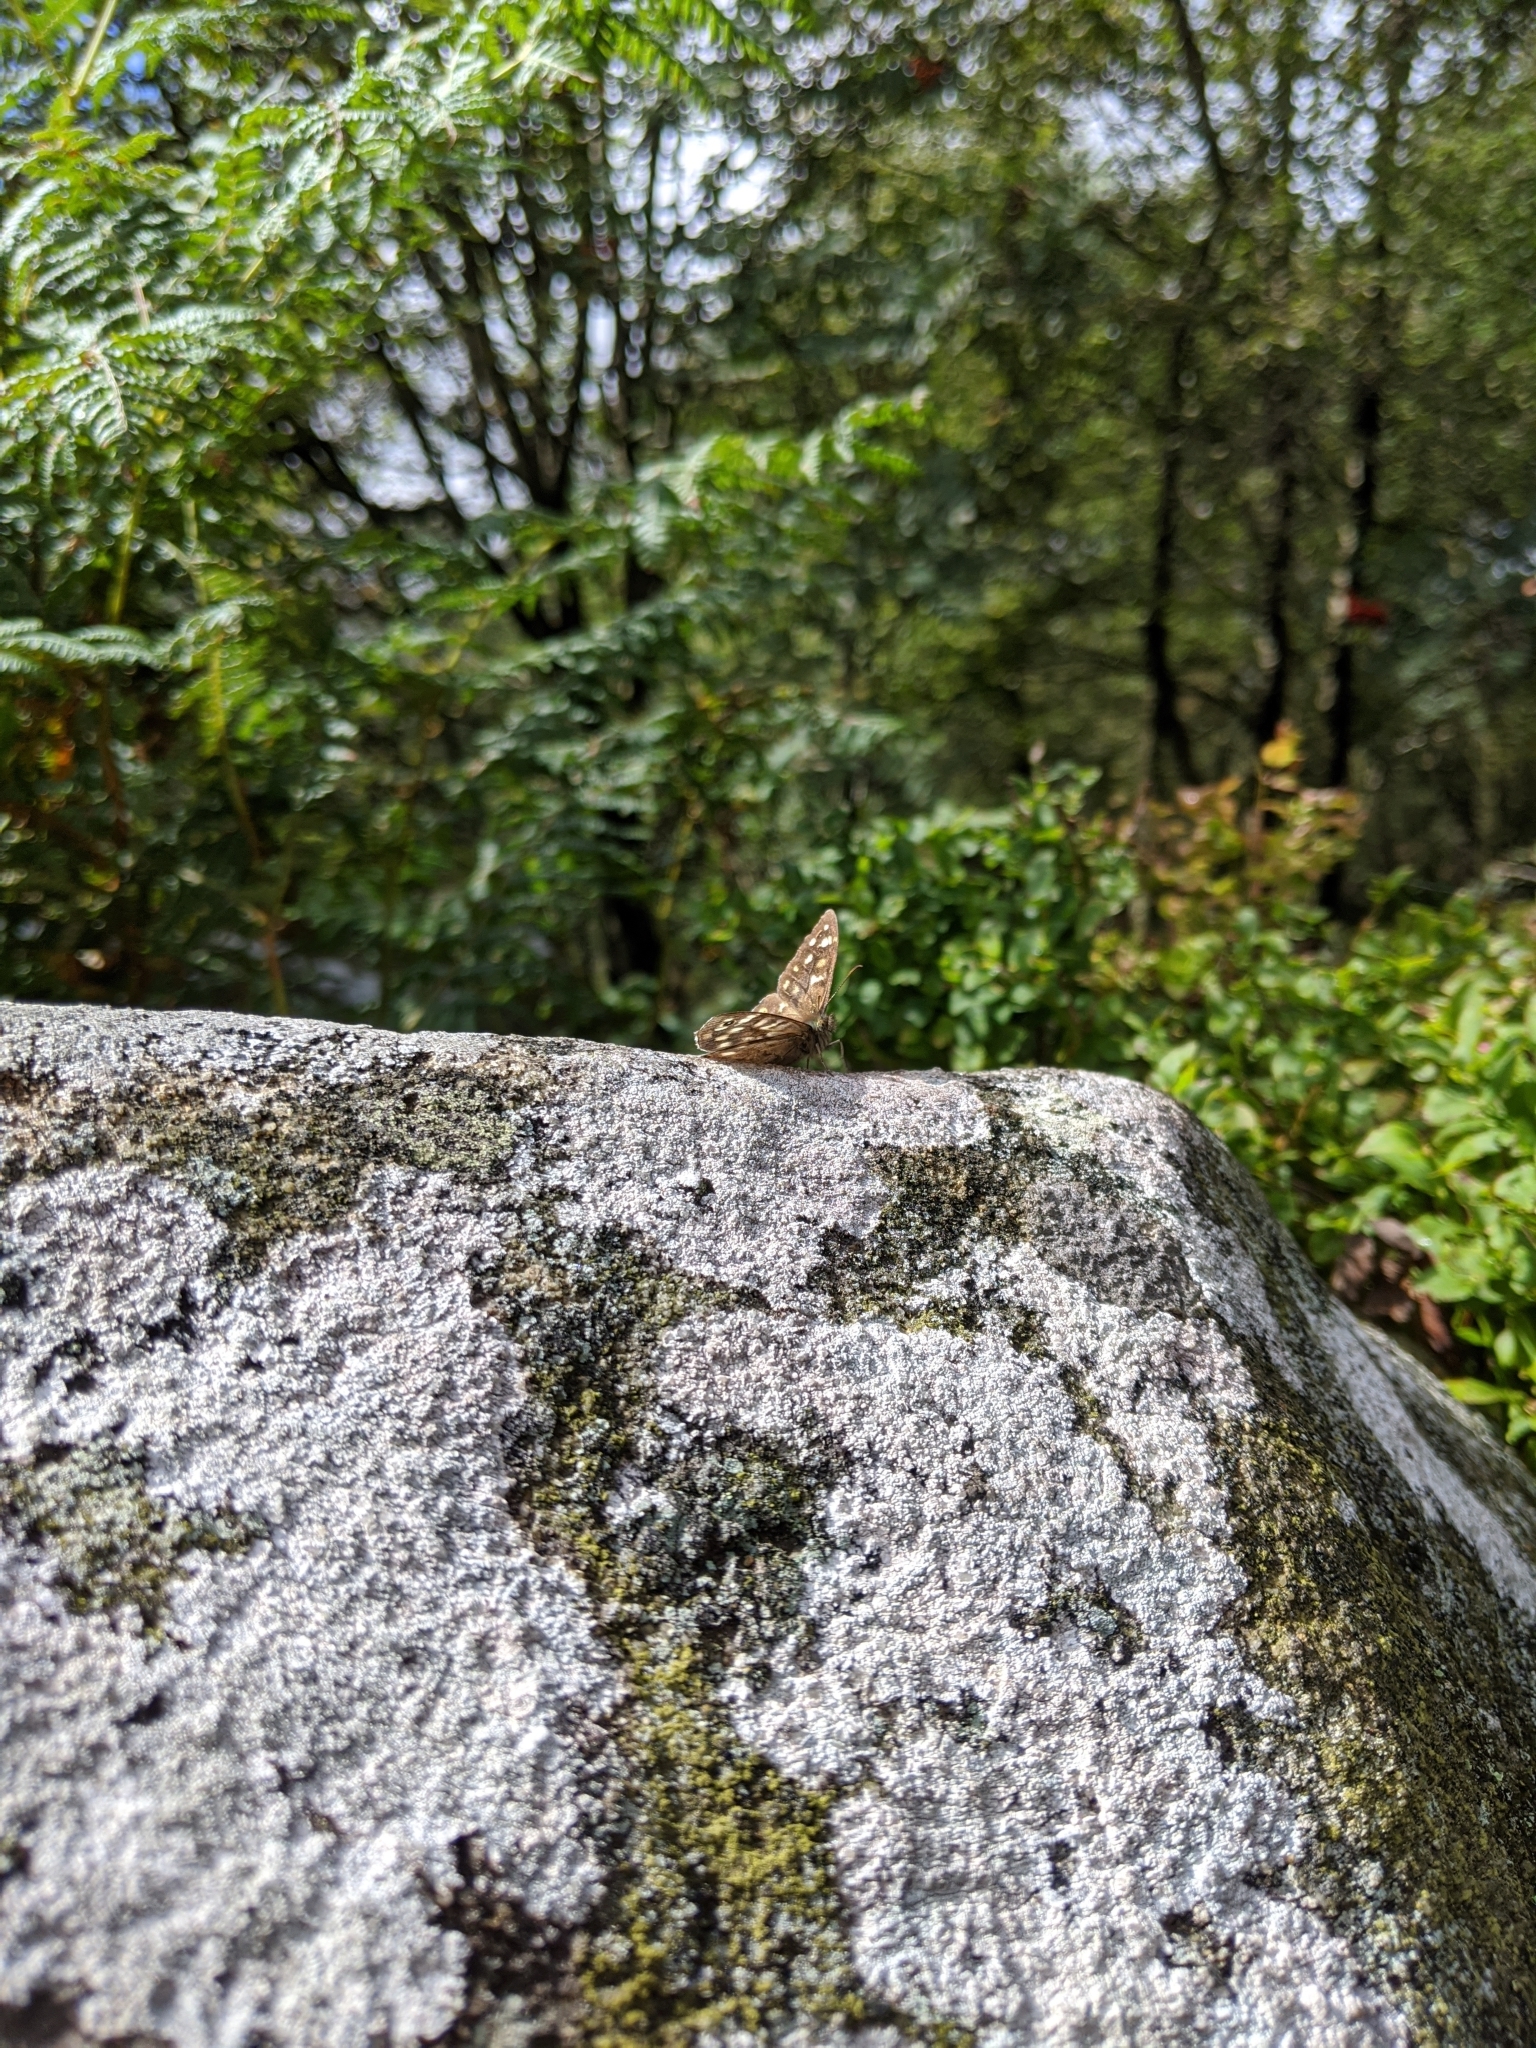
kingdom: Animalia
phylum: Arthropoda
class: Insecta
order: Lepidoptera
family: Nymphalidae
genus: Pararge
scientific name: Pararge aegeria
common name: Speckled wood
